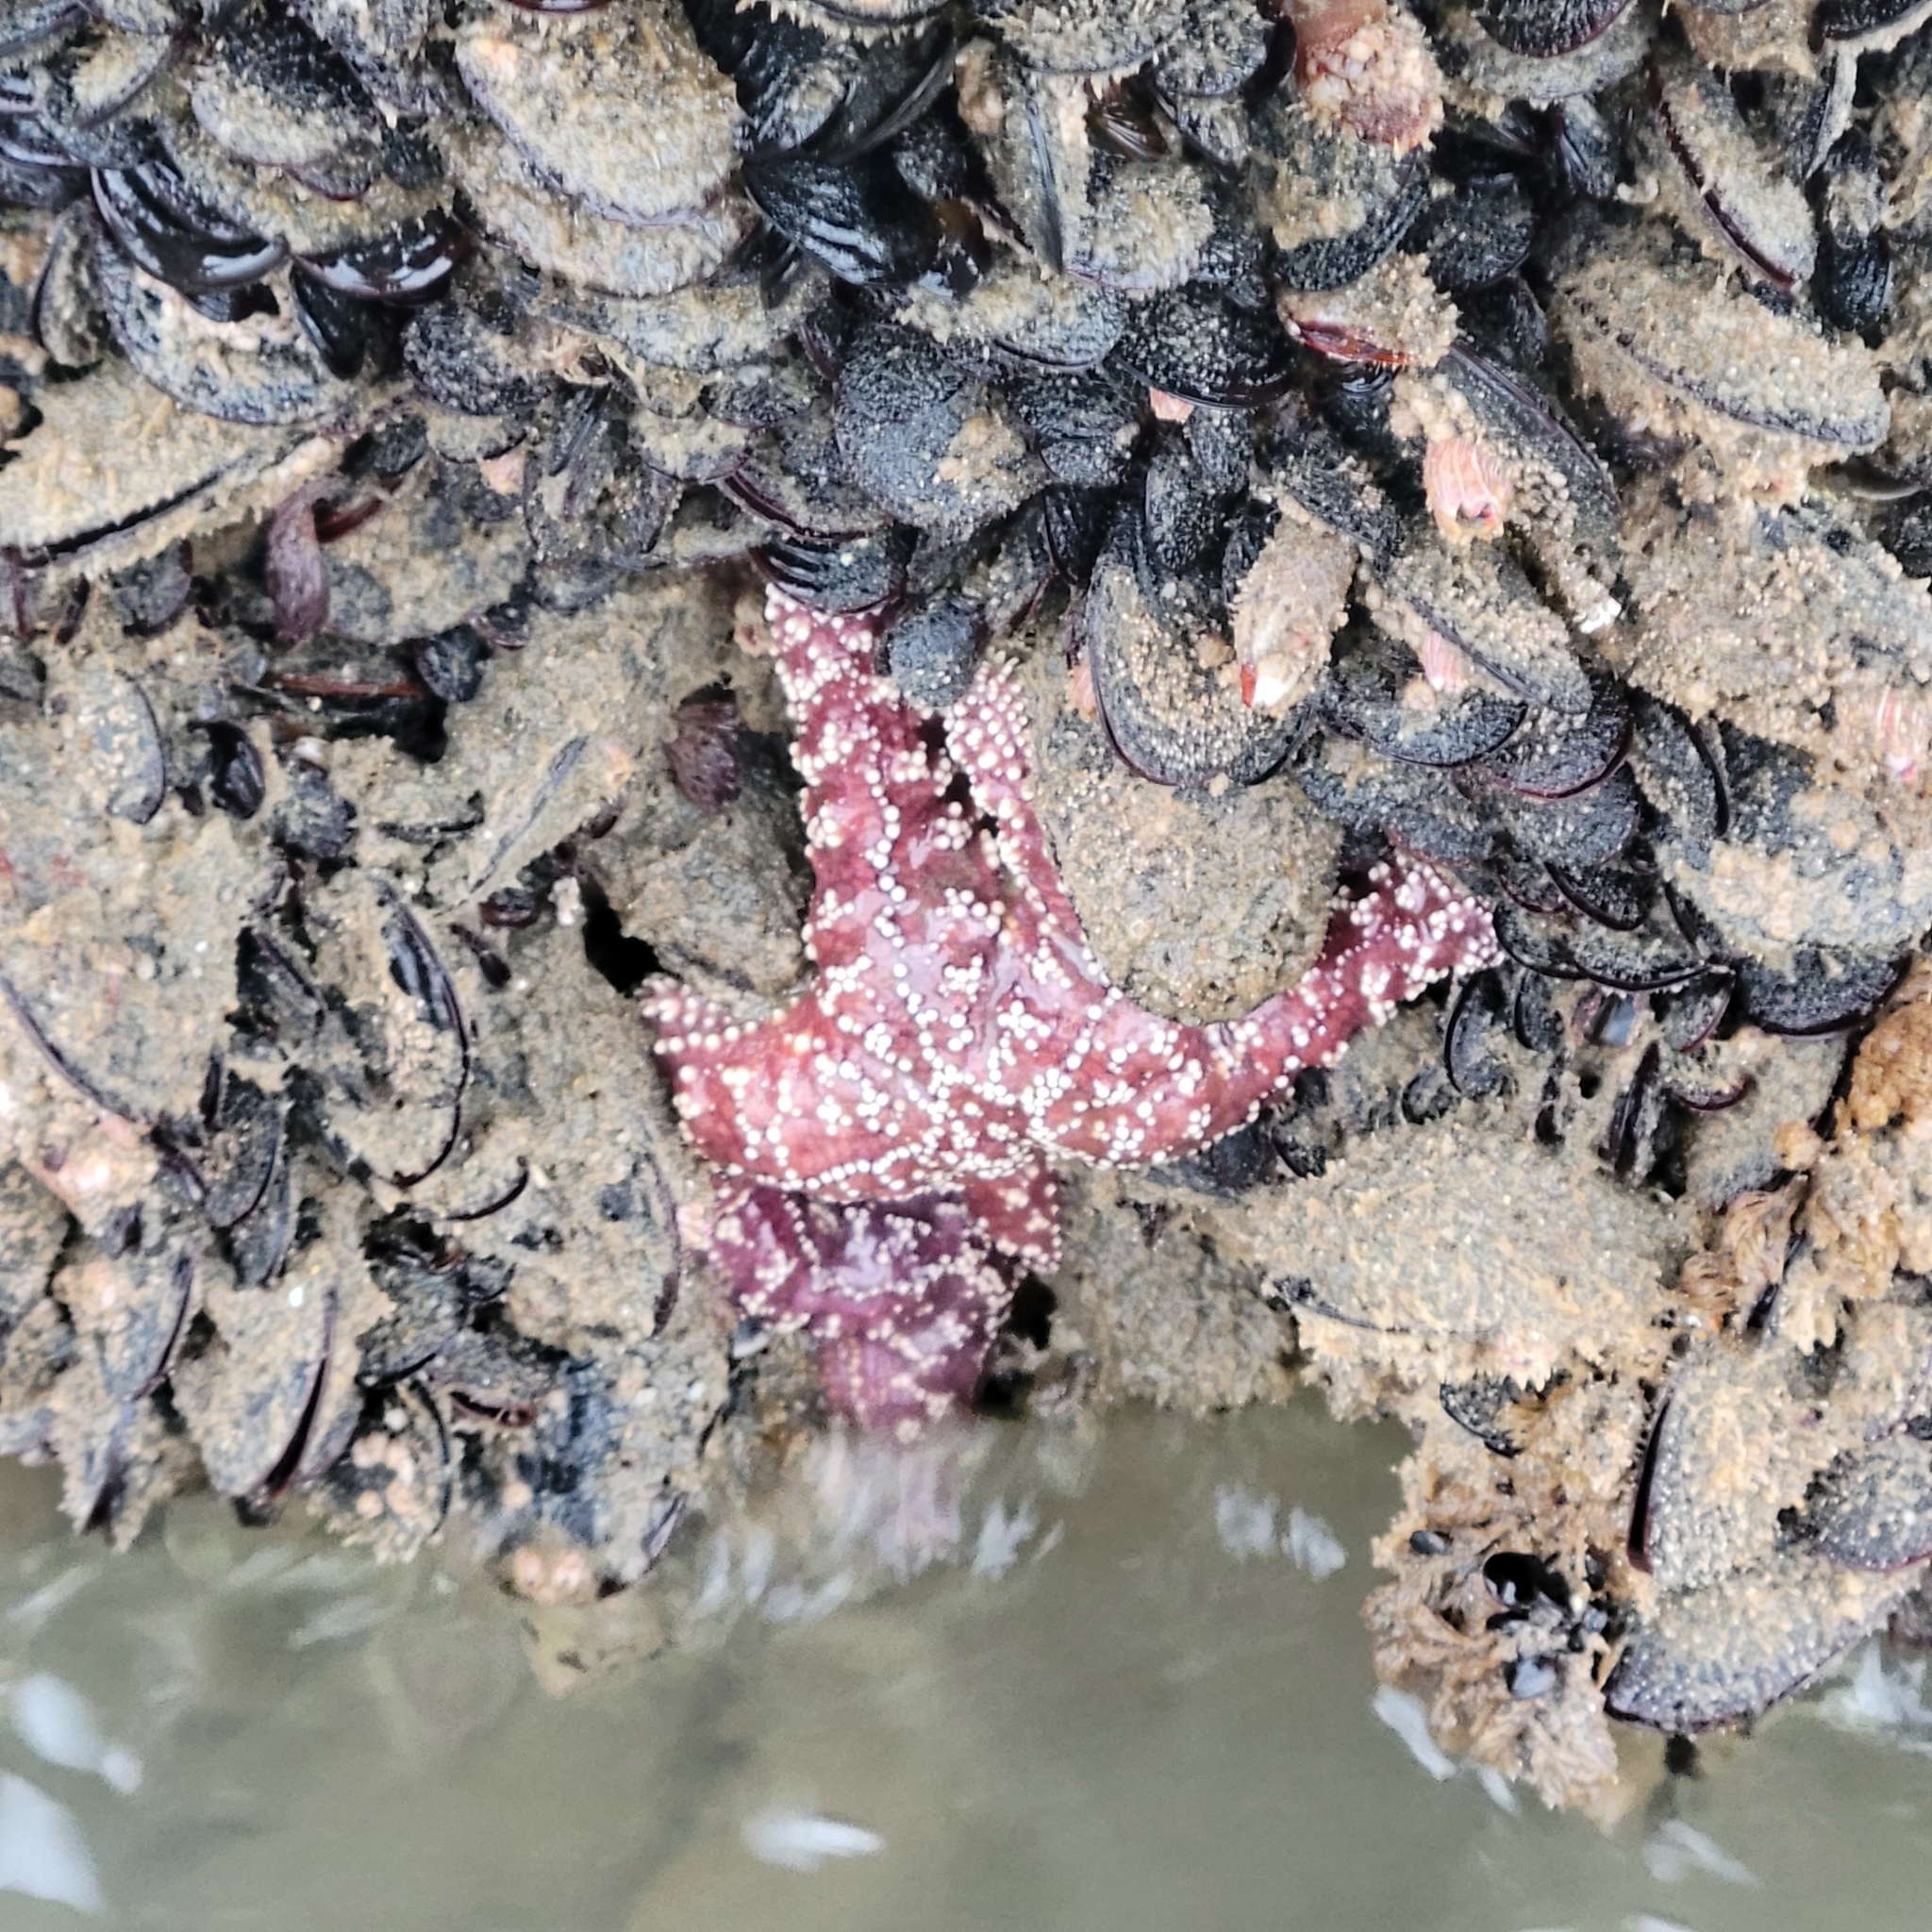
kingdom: Animalia
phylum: Echinodermata
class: Asteroidea
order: Forcipulatida
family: Asteriidae
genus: Pisaster
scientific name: Pisaster ochraceus
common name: Ochre stars
